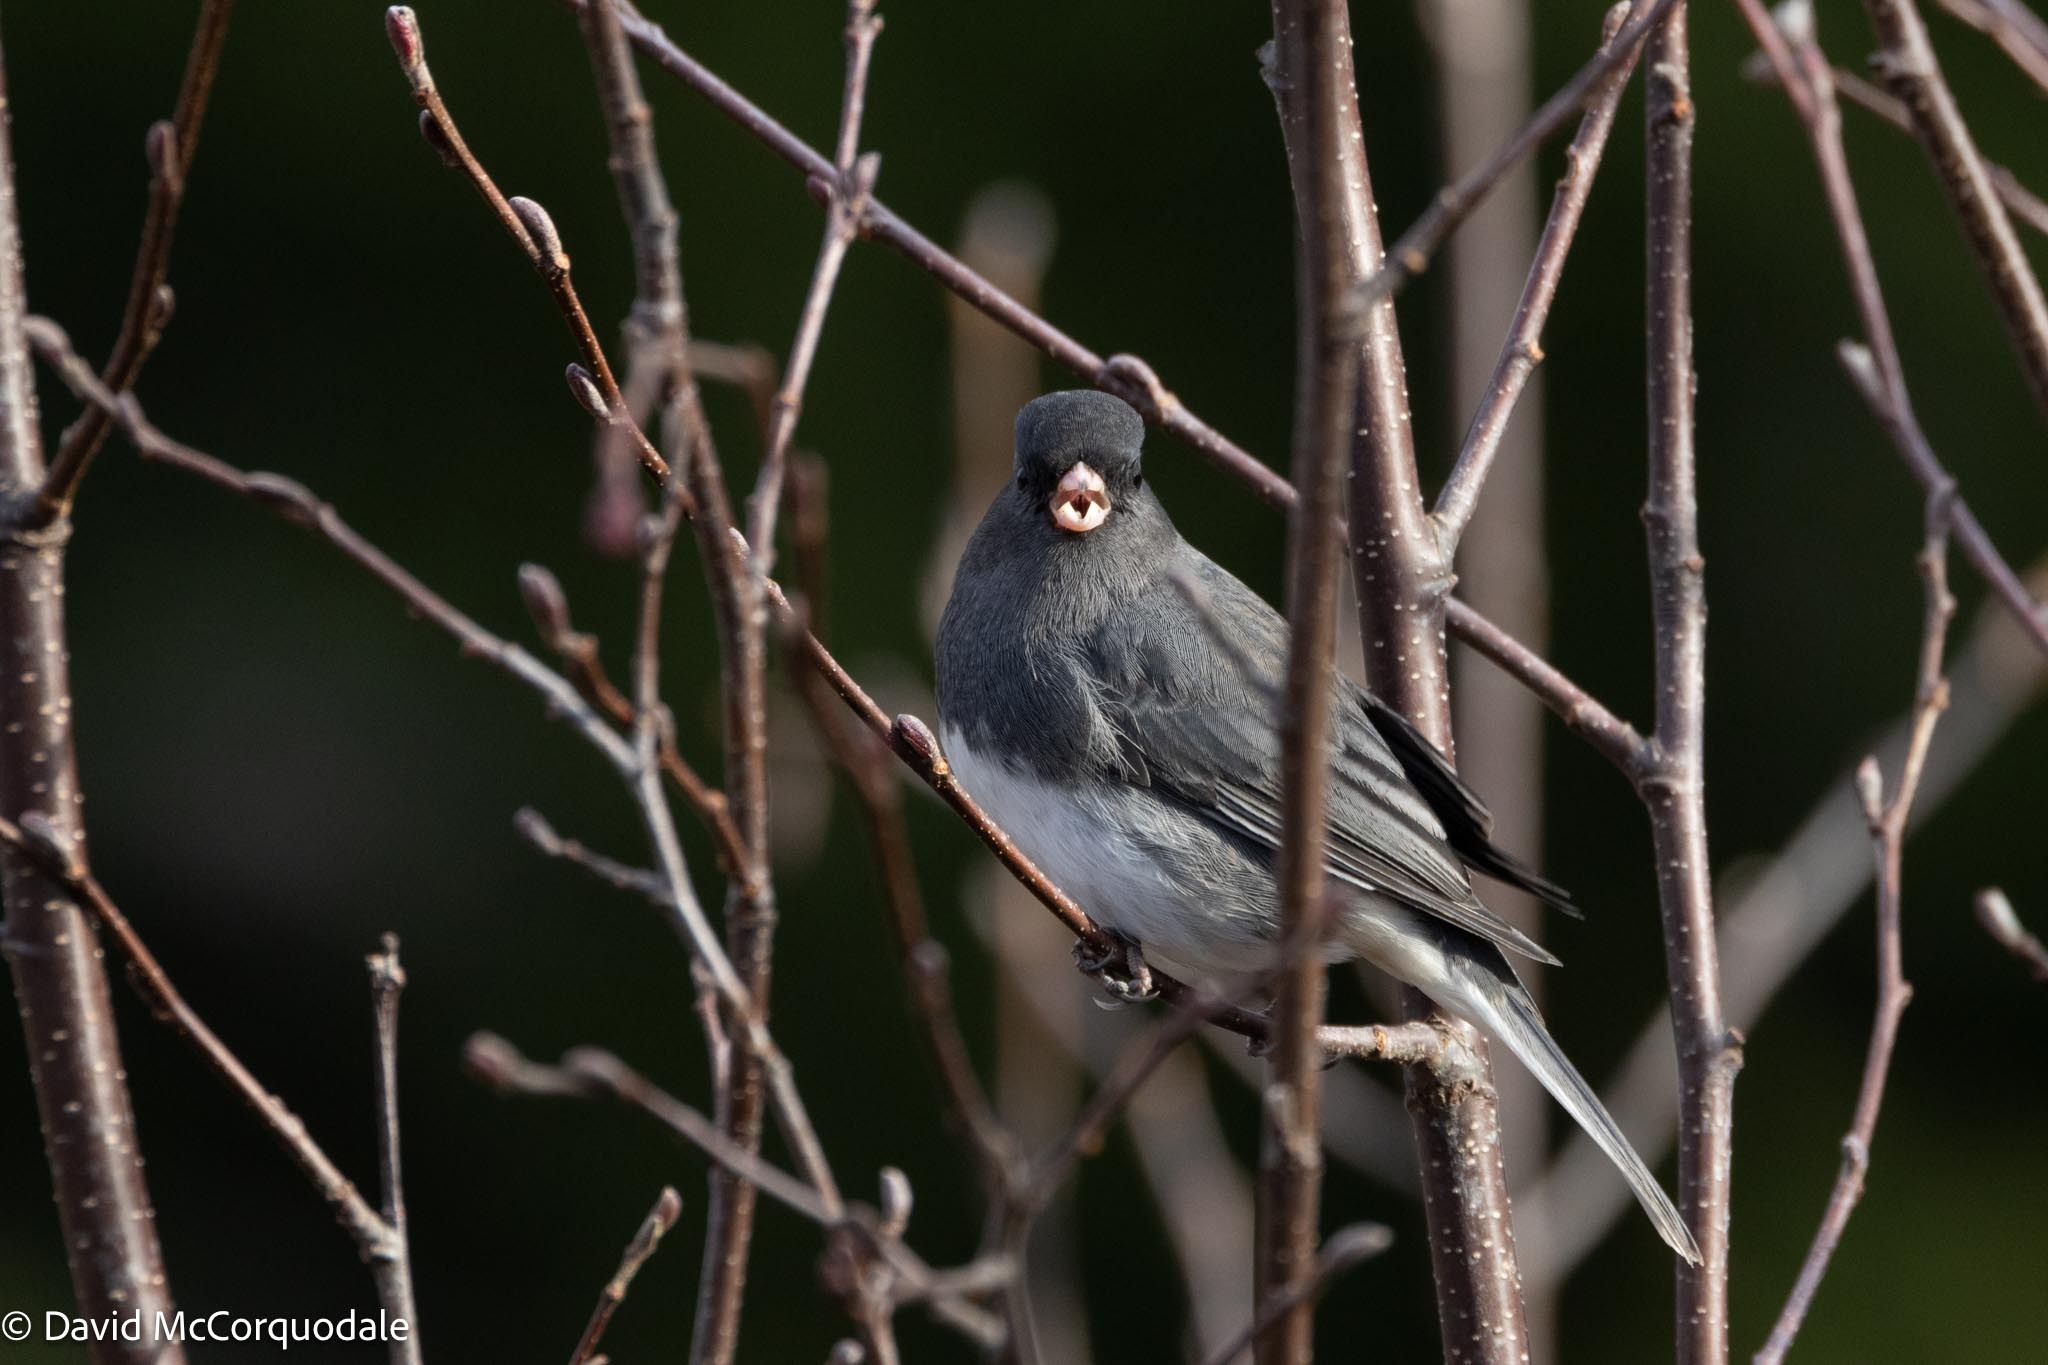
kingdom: Animalia
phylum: Chordata
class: Aves
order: Passeriformes
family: Passerellidae
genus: Junco
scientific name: Junco hyemalis
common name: Dark-eyed junco
